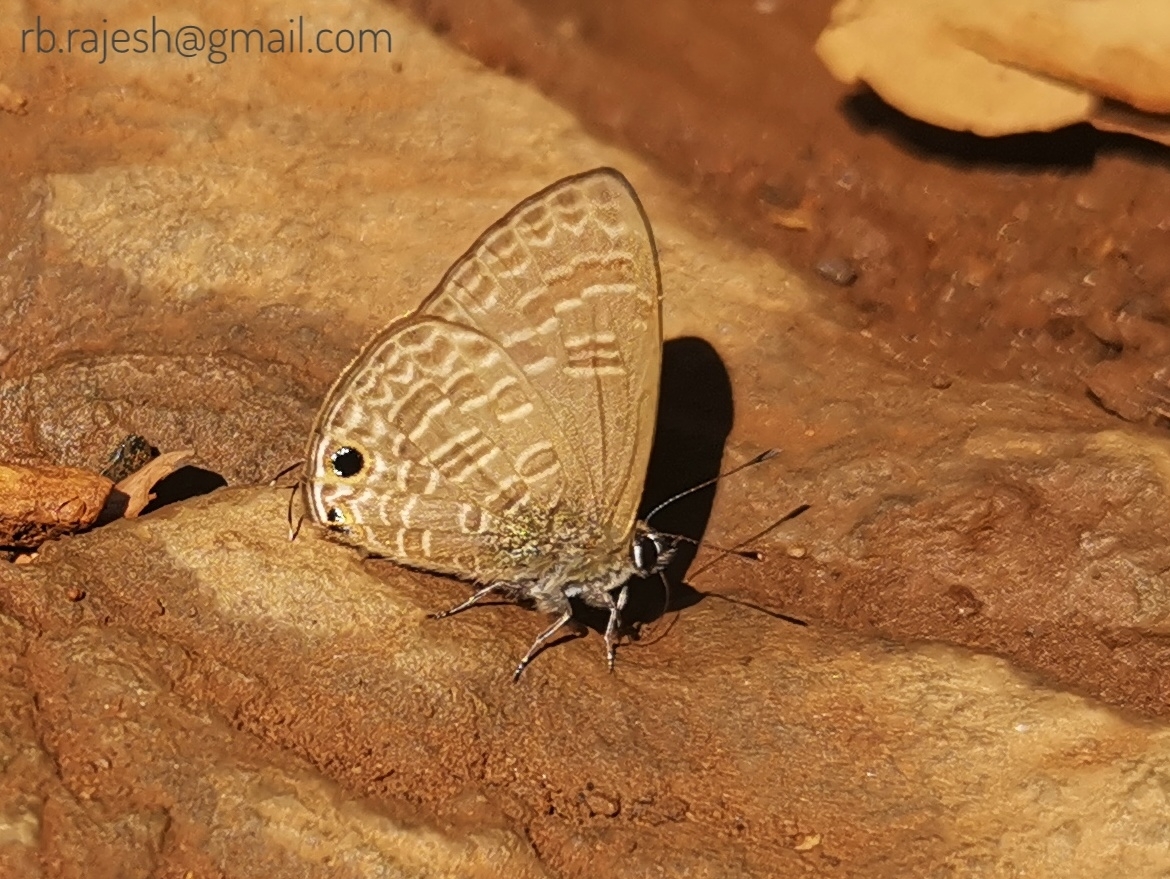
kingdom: Animalia
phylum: Arthropoda
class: Insecta
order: Lepidoptera
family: Lycaenidae
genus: Nacaduba
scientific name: Nacaduba hermus
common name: Pale four-line blue
